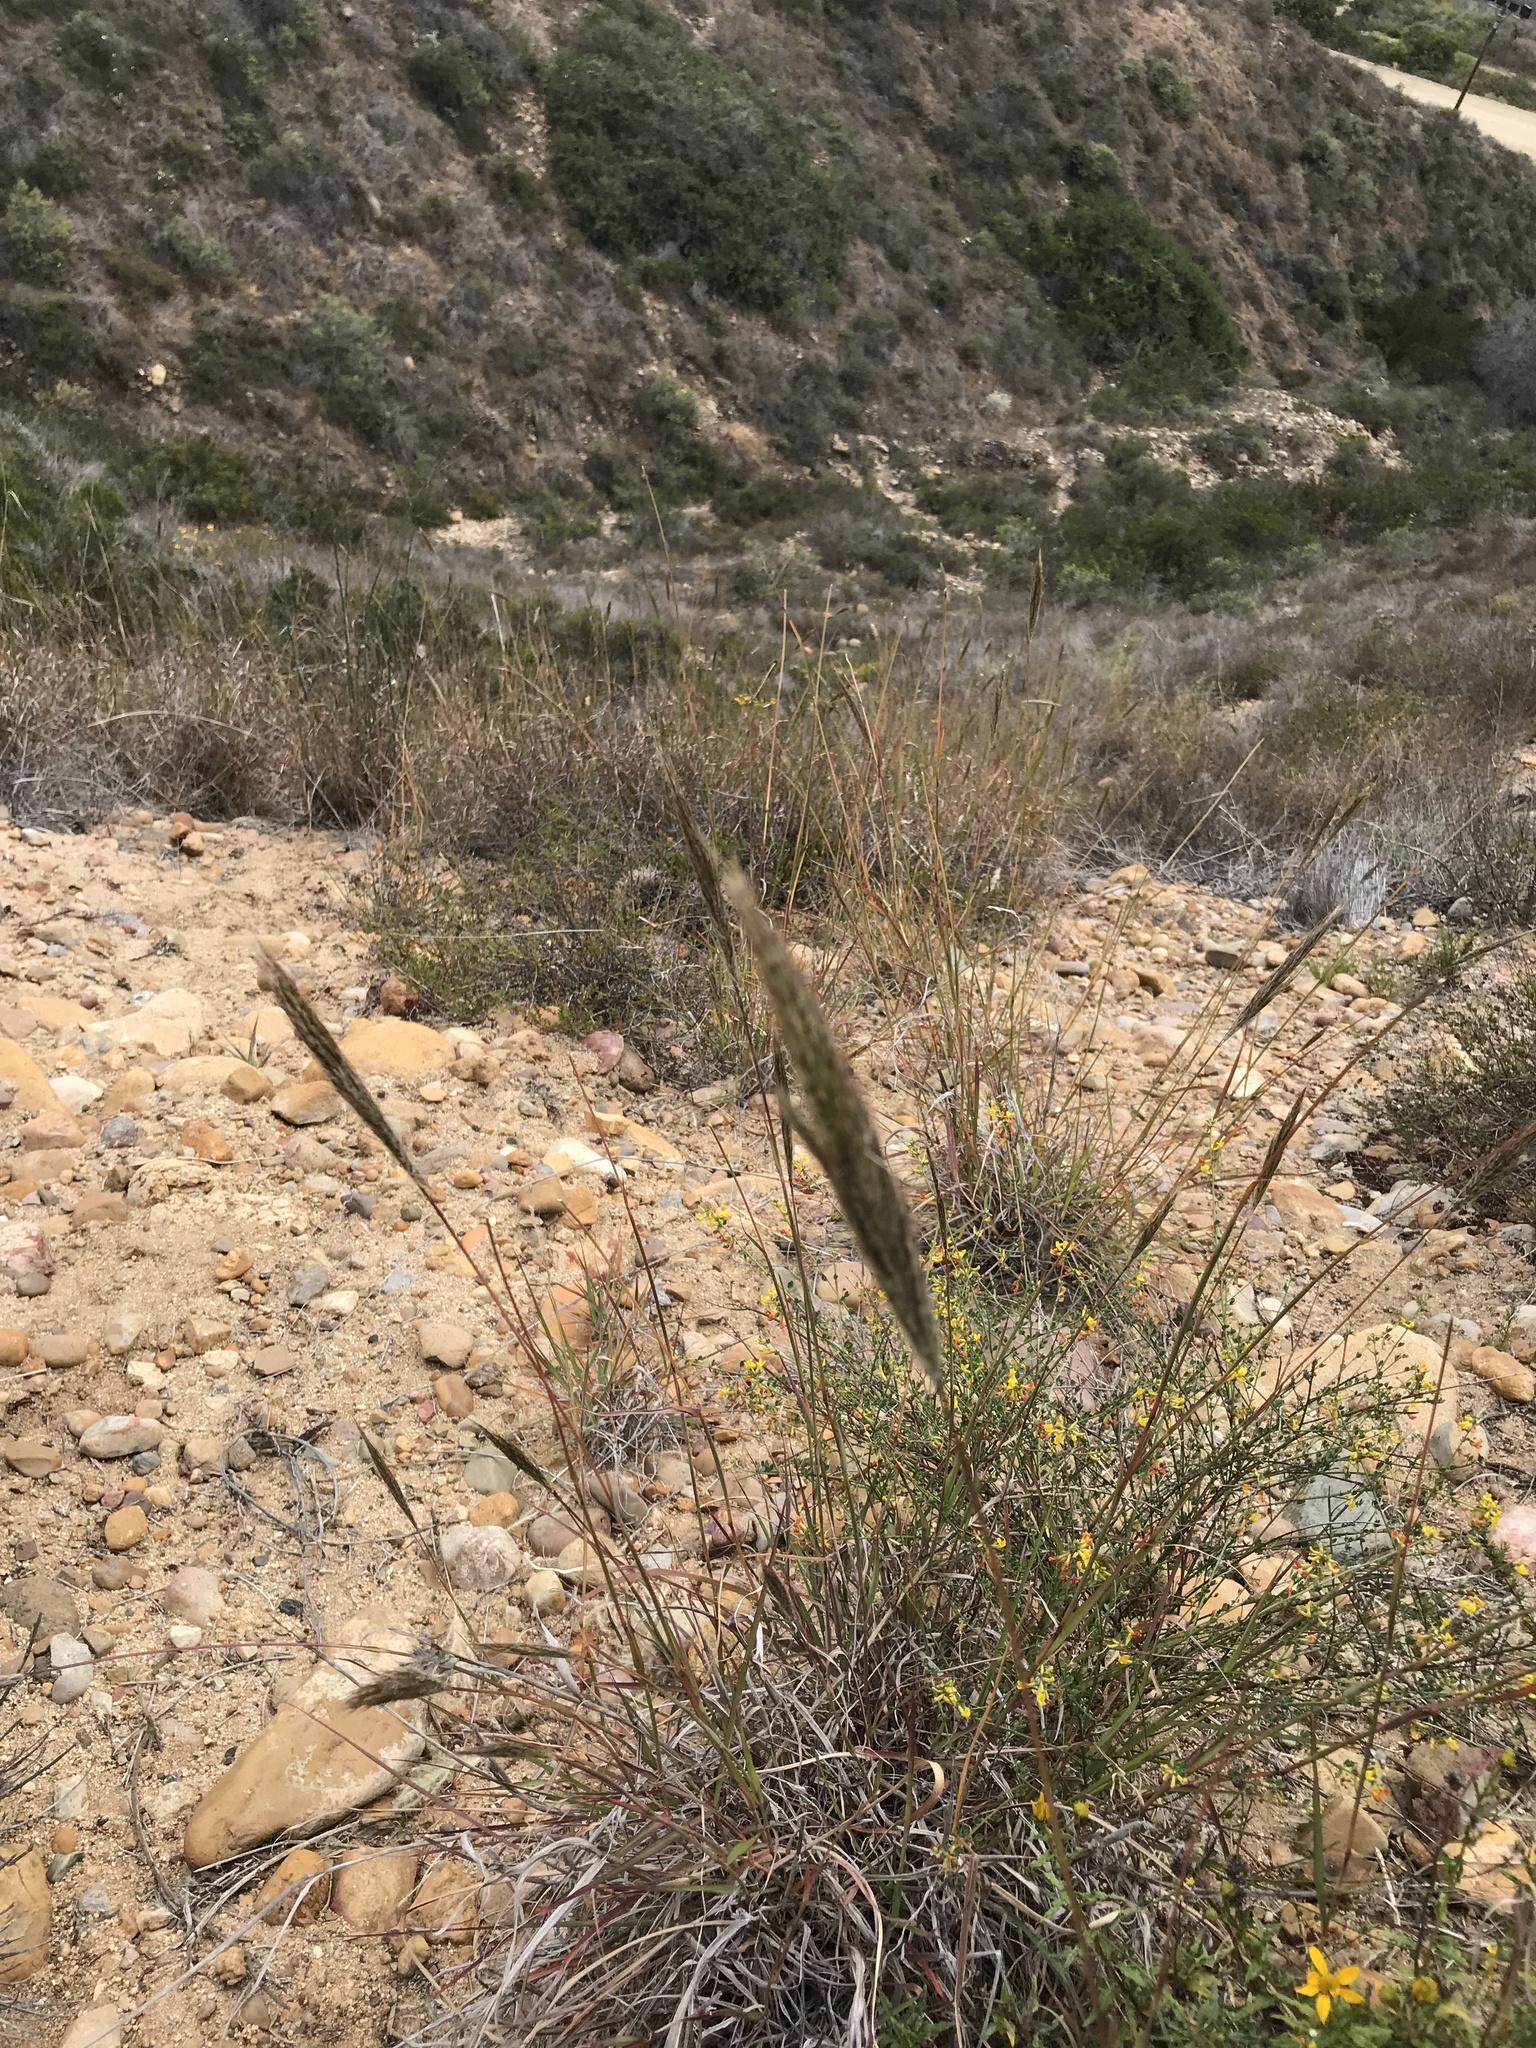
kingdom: Plantae
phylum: Tracheophyta
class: Liliopsida
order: Poales
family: Poaceae
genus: Bothriochloa
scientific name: Bothriochloa barbinodis
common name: Cane bluestem
